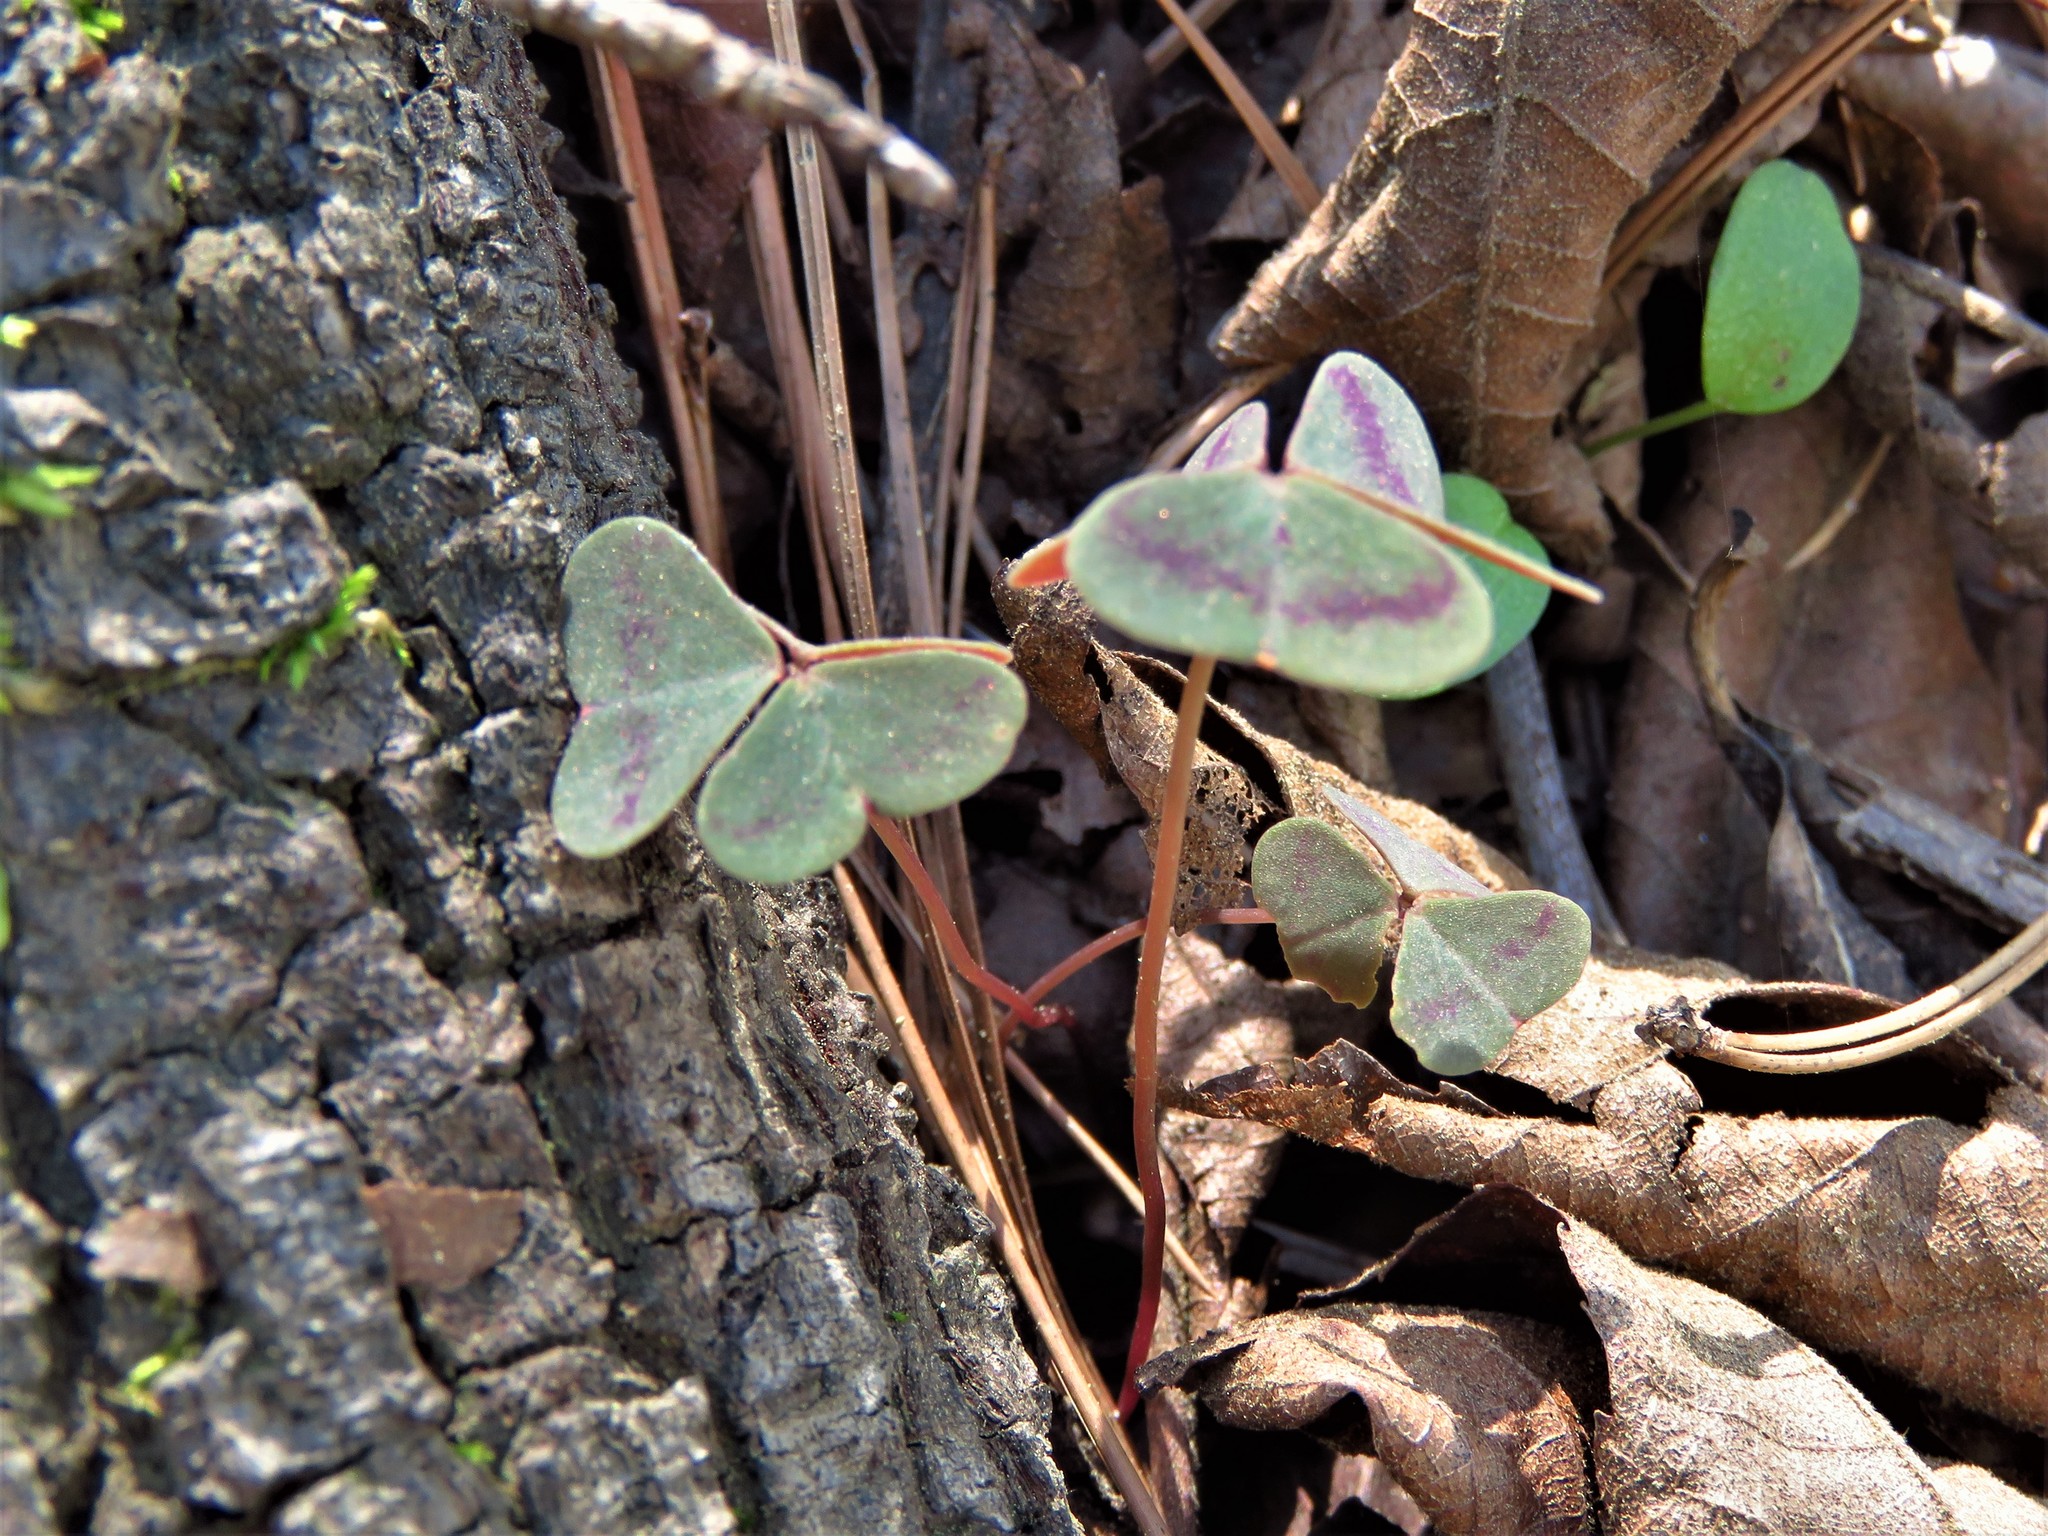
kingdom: Plantae
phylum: Tracheophyta
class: Magnoliopsida
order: Oxalidales
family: Oxalidaceae
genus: Oxalis
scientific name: Oxalis violacea
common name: Violet wood-sorrel
